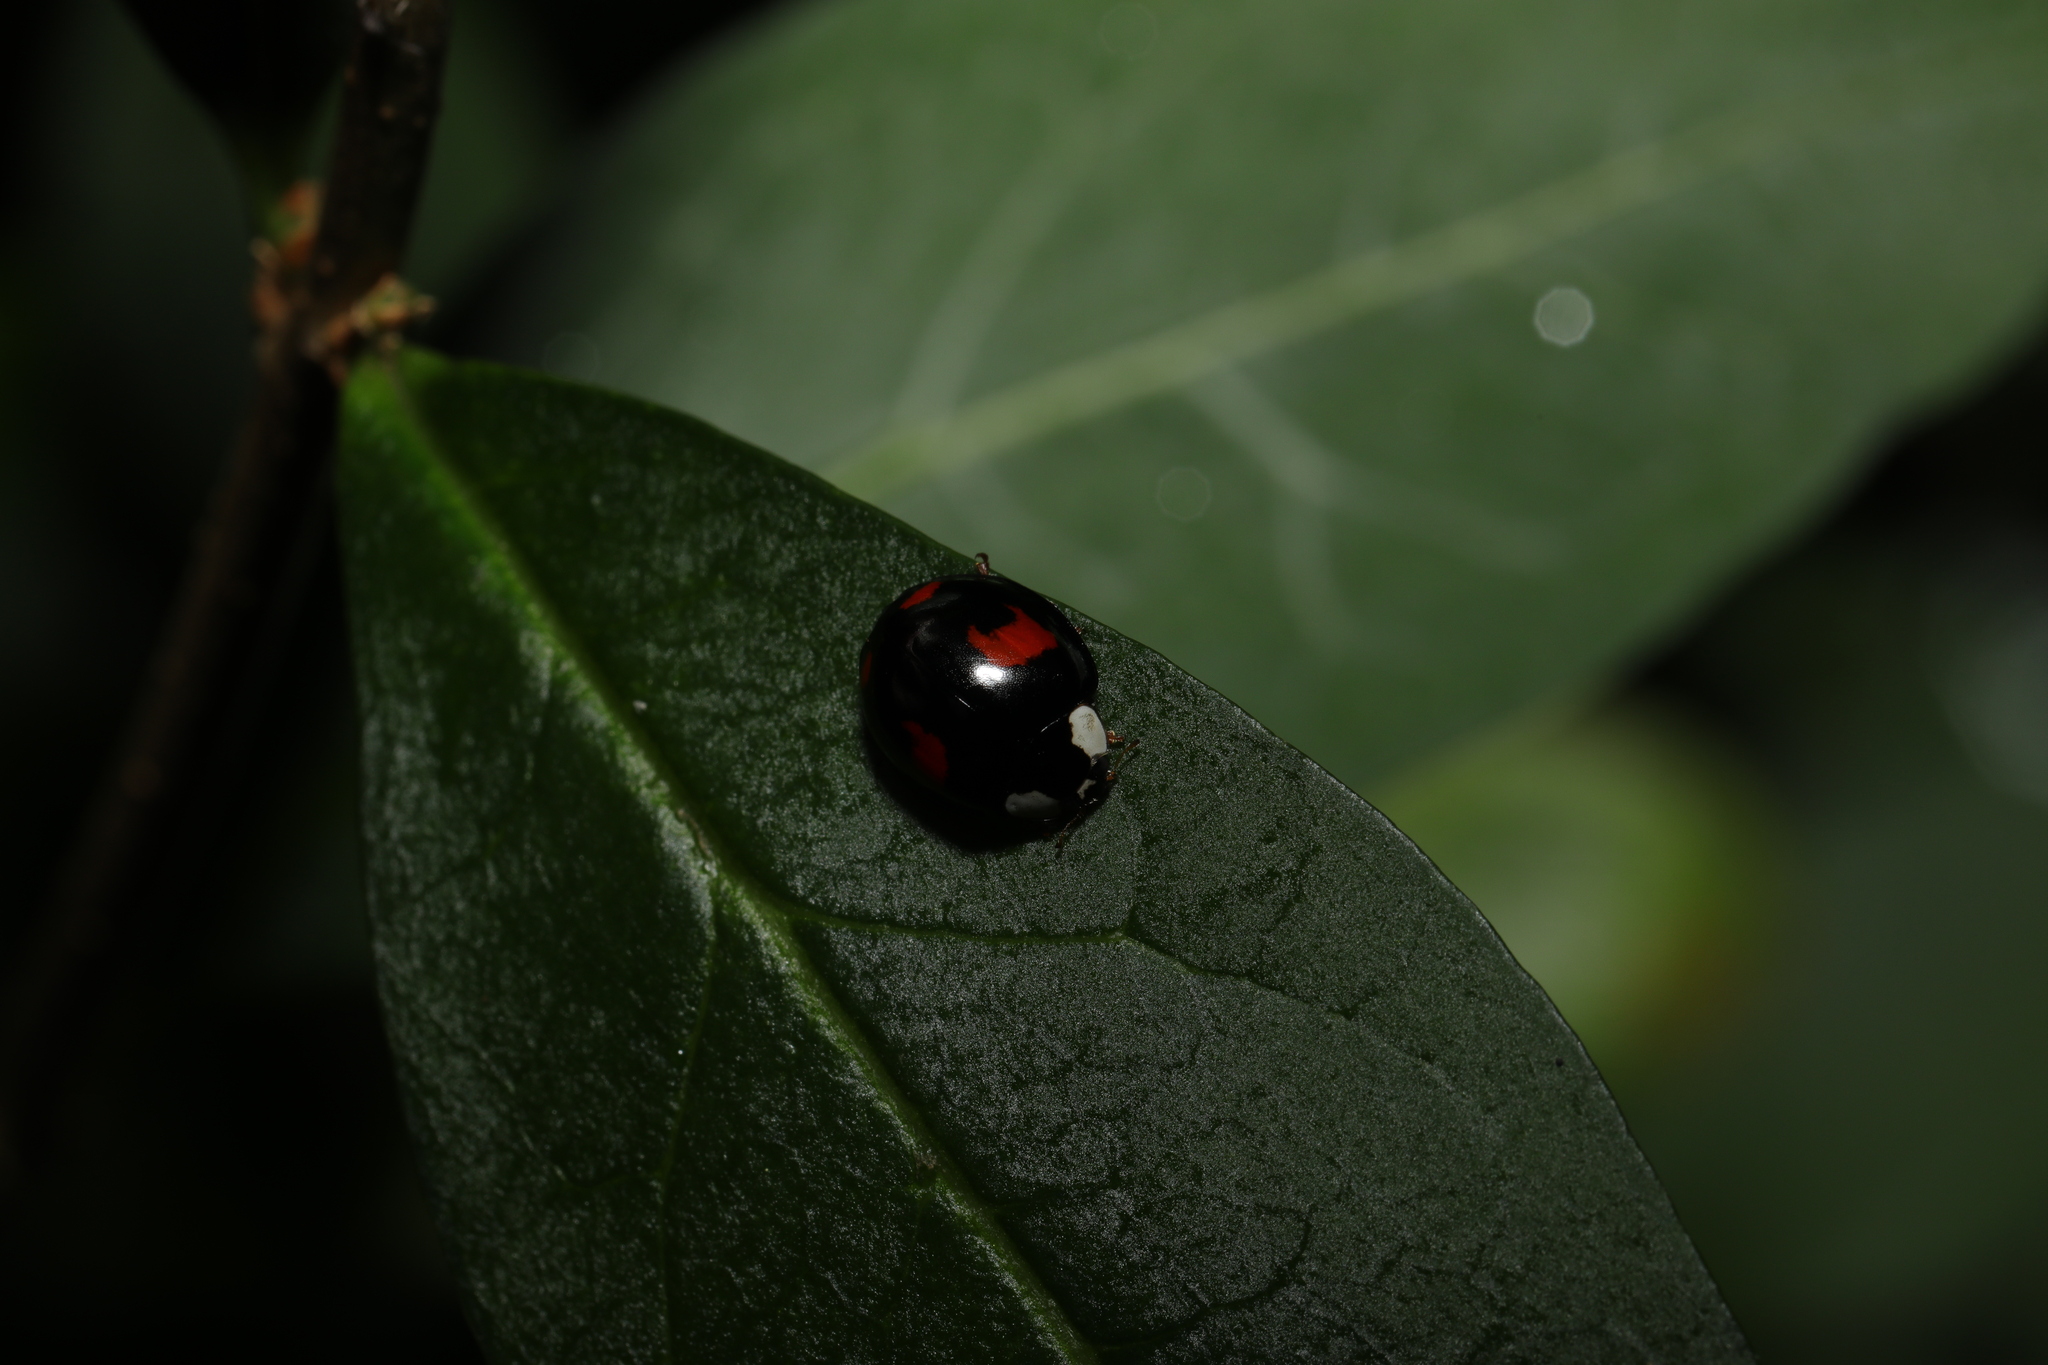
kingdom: Animalia
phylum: Arthropoda
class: Insecta
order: Coleoptera
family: Coccinellidae
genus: Harmonia
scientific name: Harmonia axyridis
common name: Harlequin ladybird
